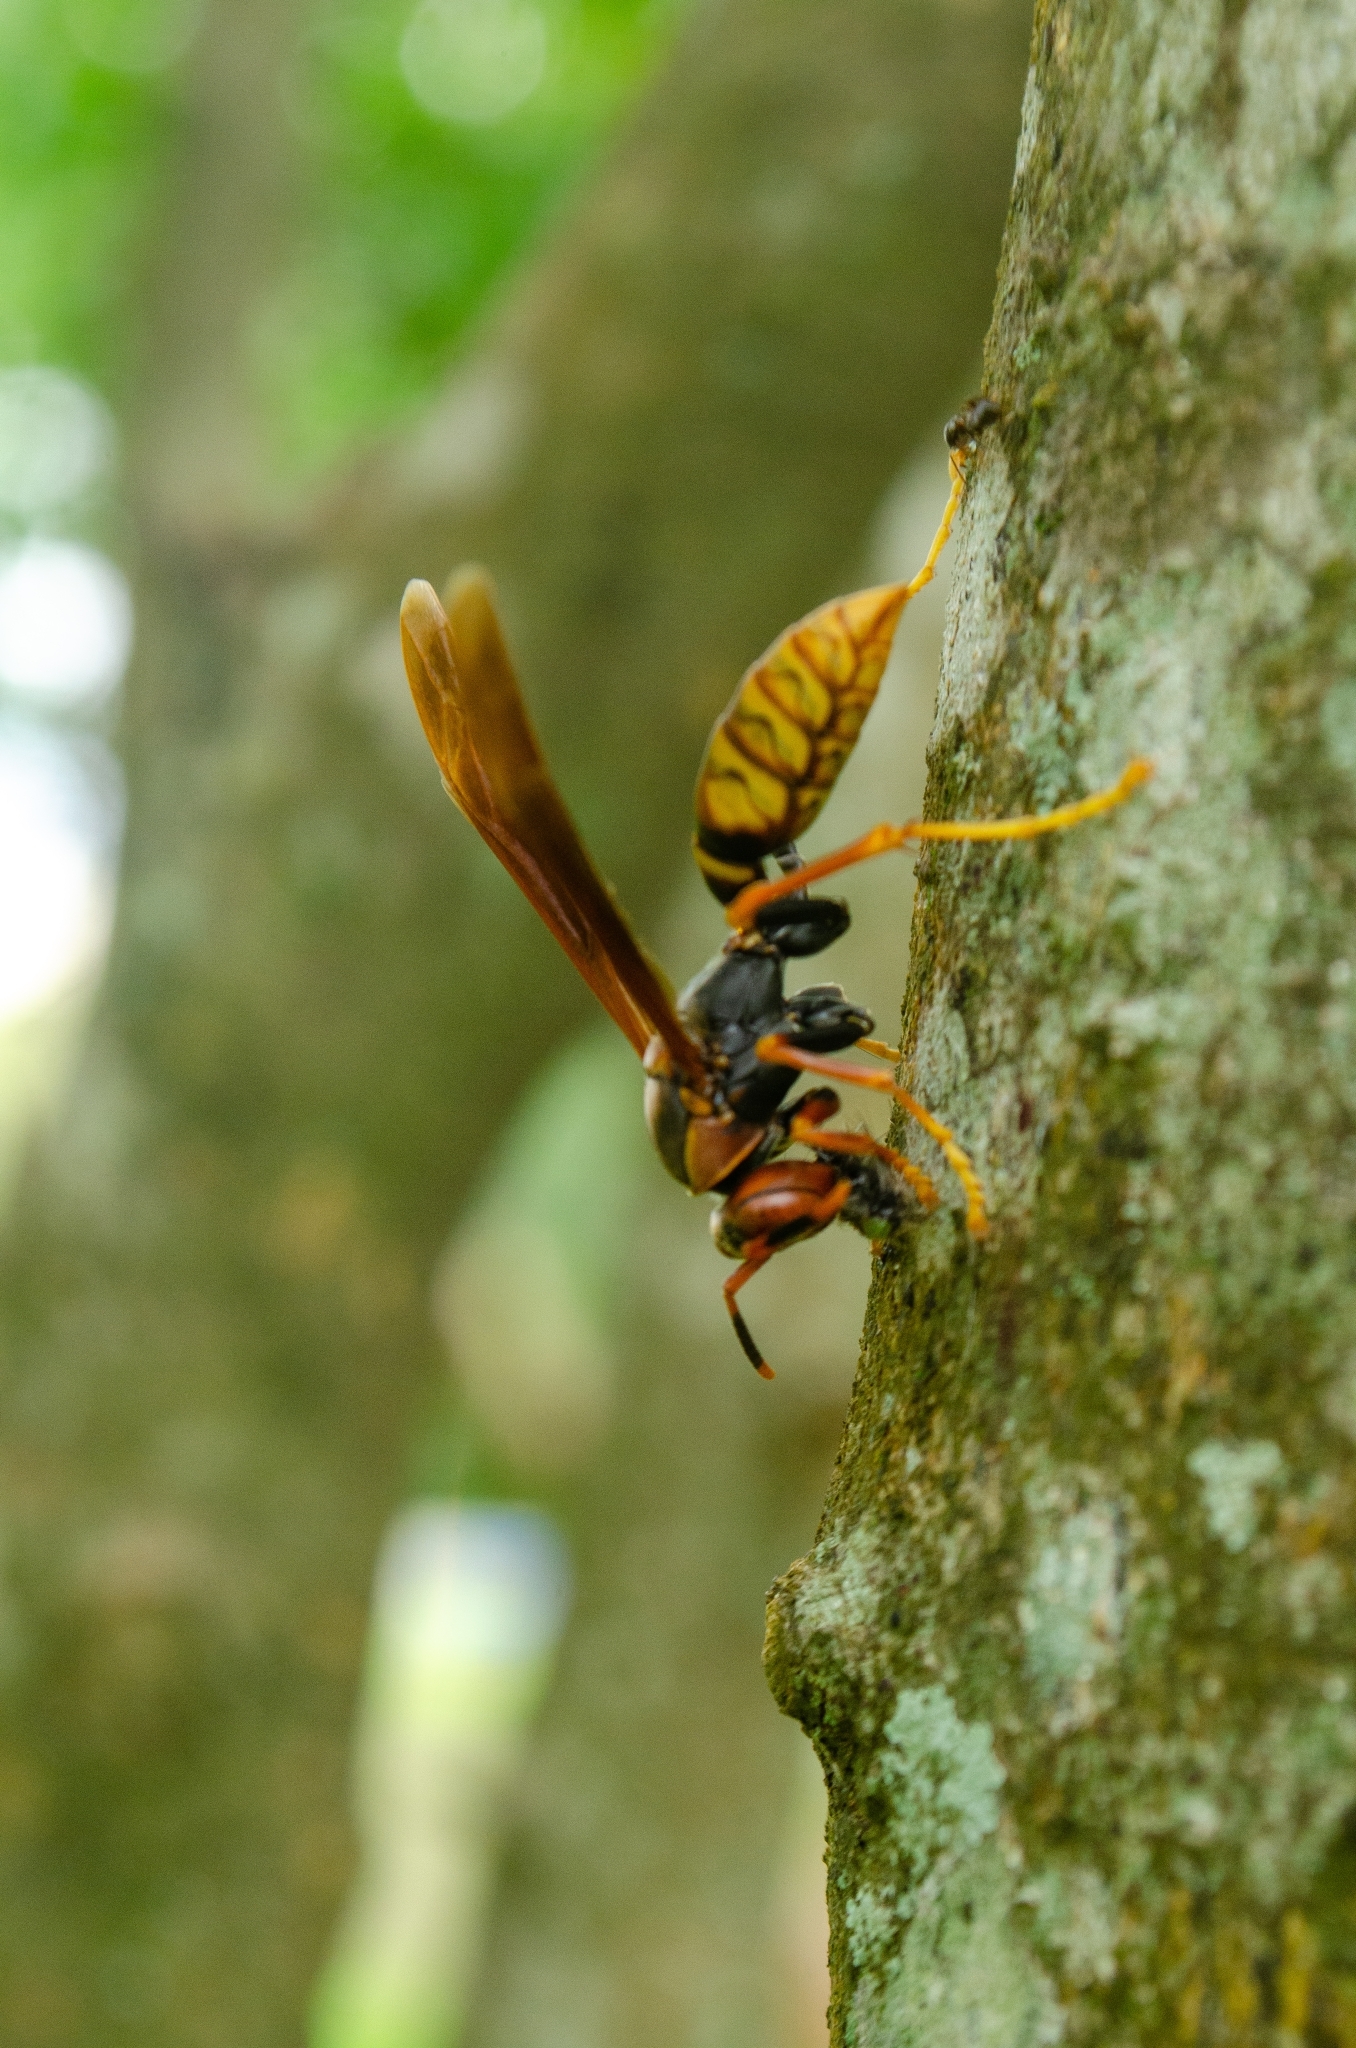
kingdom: Animalia
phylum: Arthropoda
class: Insecta
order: Hymenoptera
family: Eumenidae
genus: Polistes
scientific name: Polistes cavapytiformis
